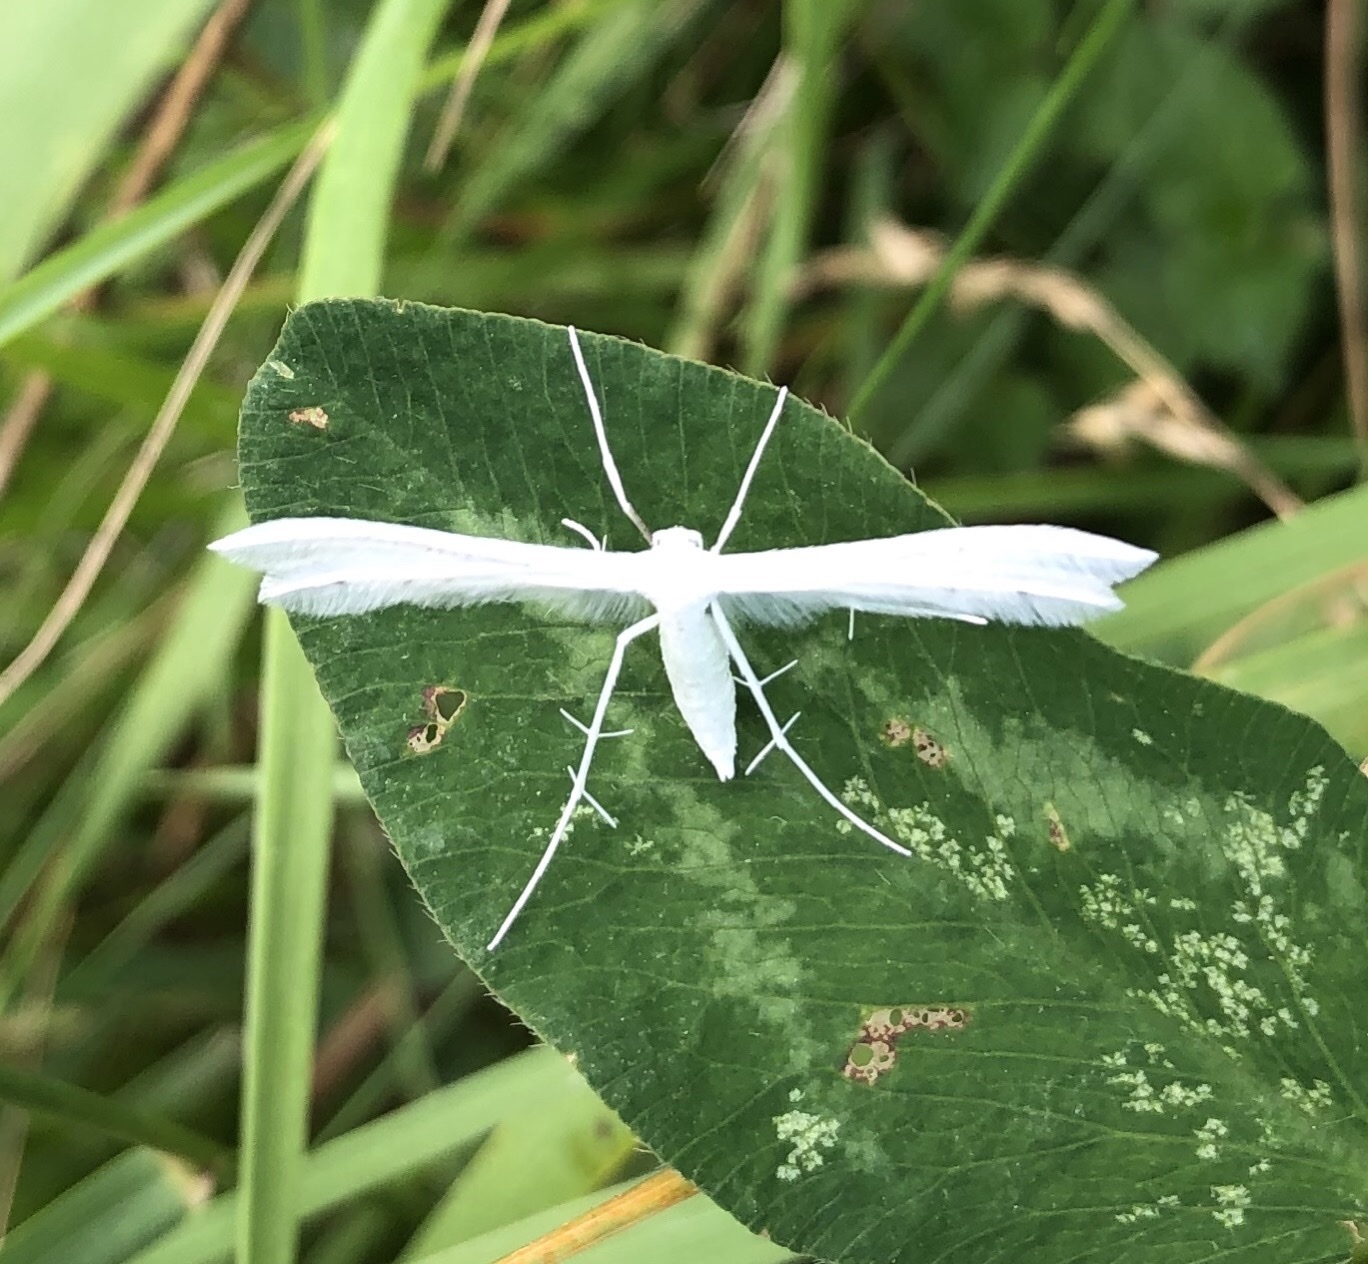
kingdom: Animalia
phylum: Arthropoda
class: Insecta
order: Lepidoptera
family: Pterophoridae
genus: Pterophorus
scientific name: Pterophorus pentadactyla
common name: White plume moth
